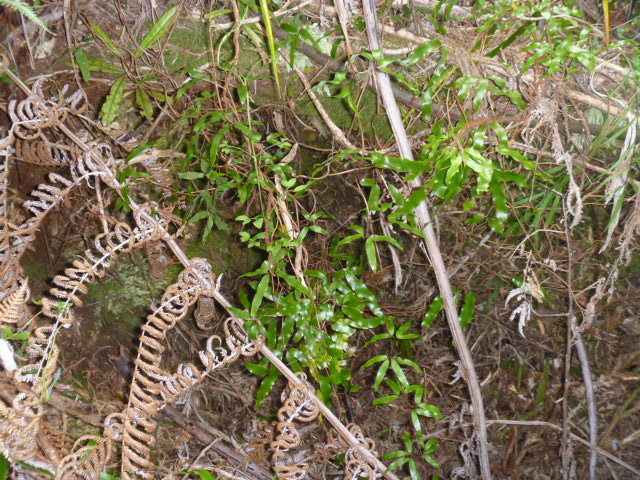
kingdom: Plantae
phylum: Tracheophyta
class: Polypodiopsida
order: Schizaeales
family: Lygodiaceae
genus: Lygodium
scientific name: Lygodium articulatum
